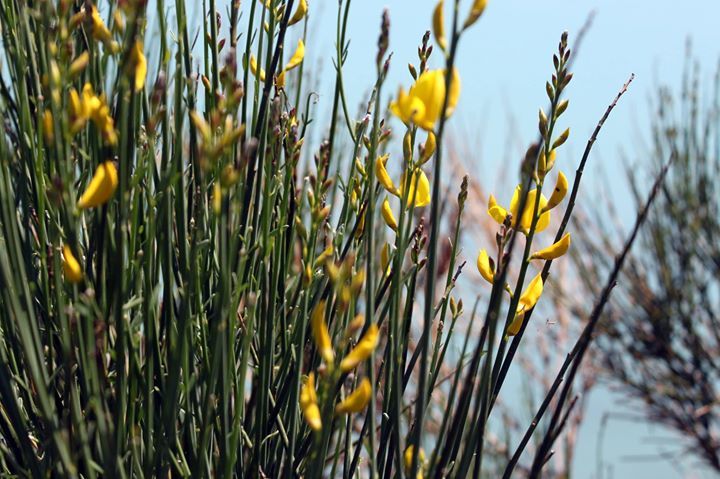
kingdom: Plantae
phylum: Tracheophyta
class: Magnoliopsida
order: Fabales
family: Fabaceae
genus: Spartium
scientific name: Spartium junceum
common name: Spanish broom
